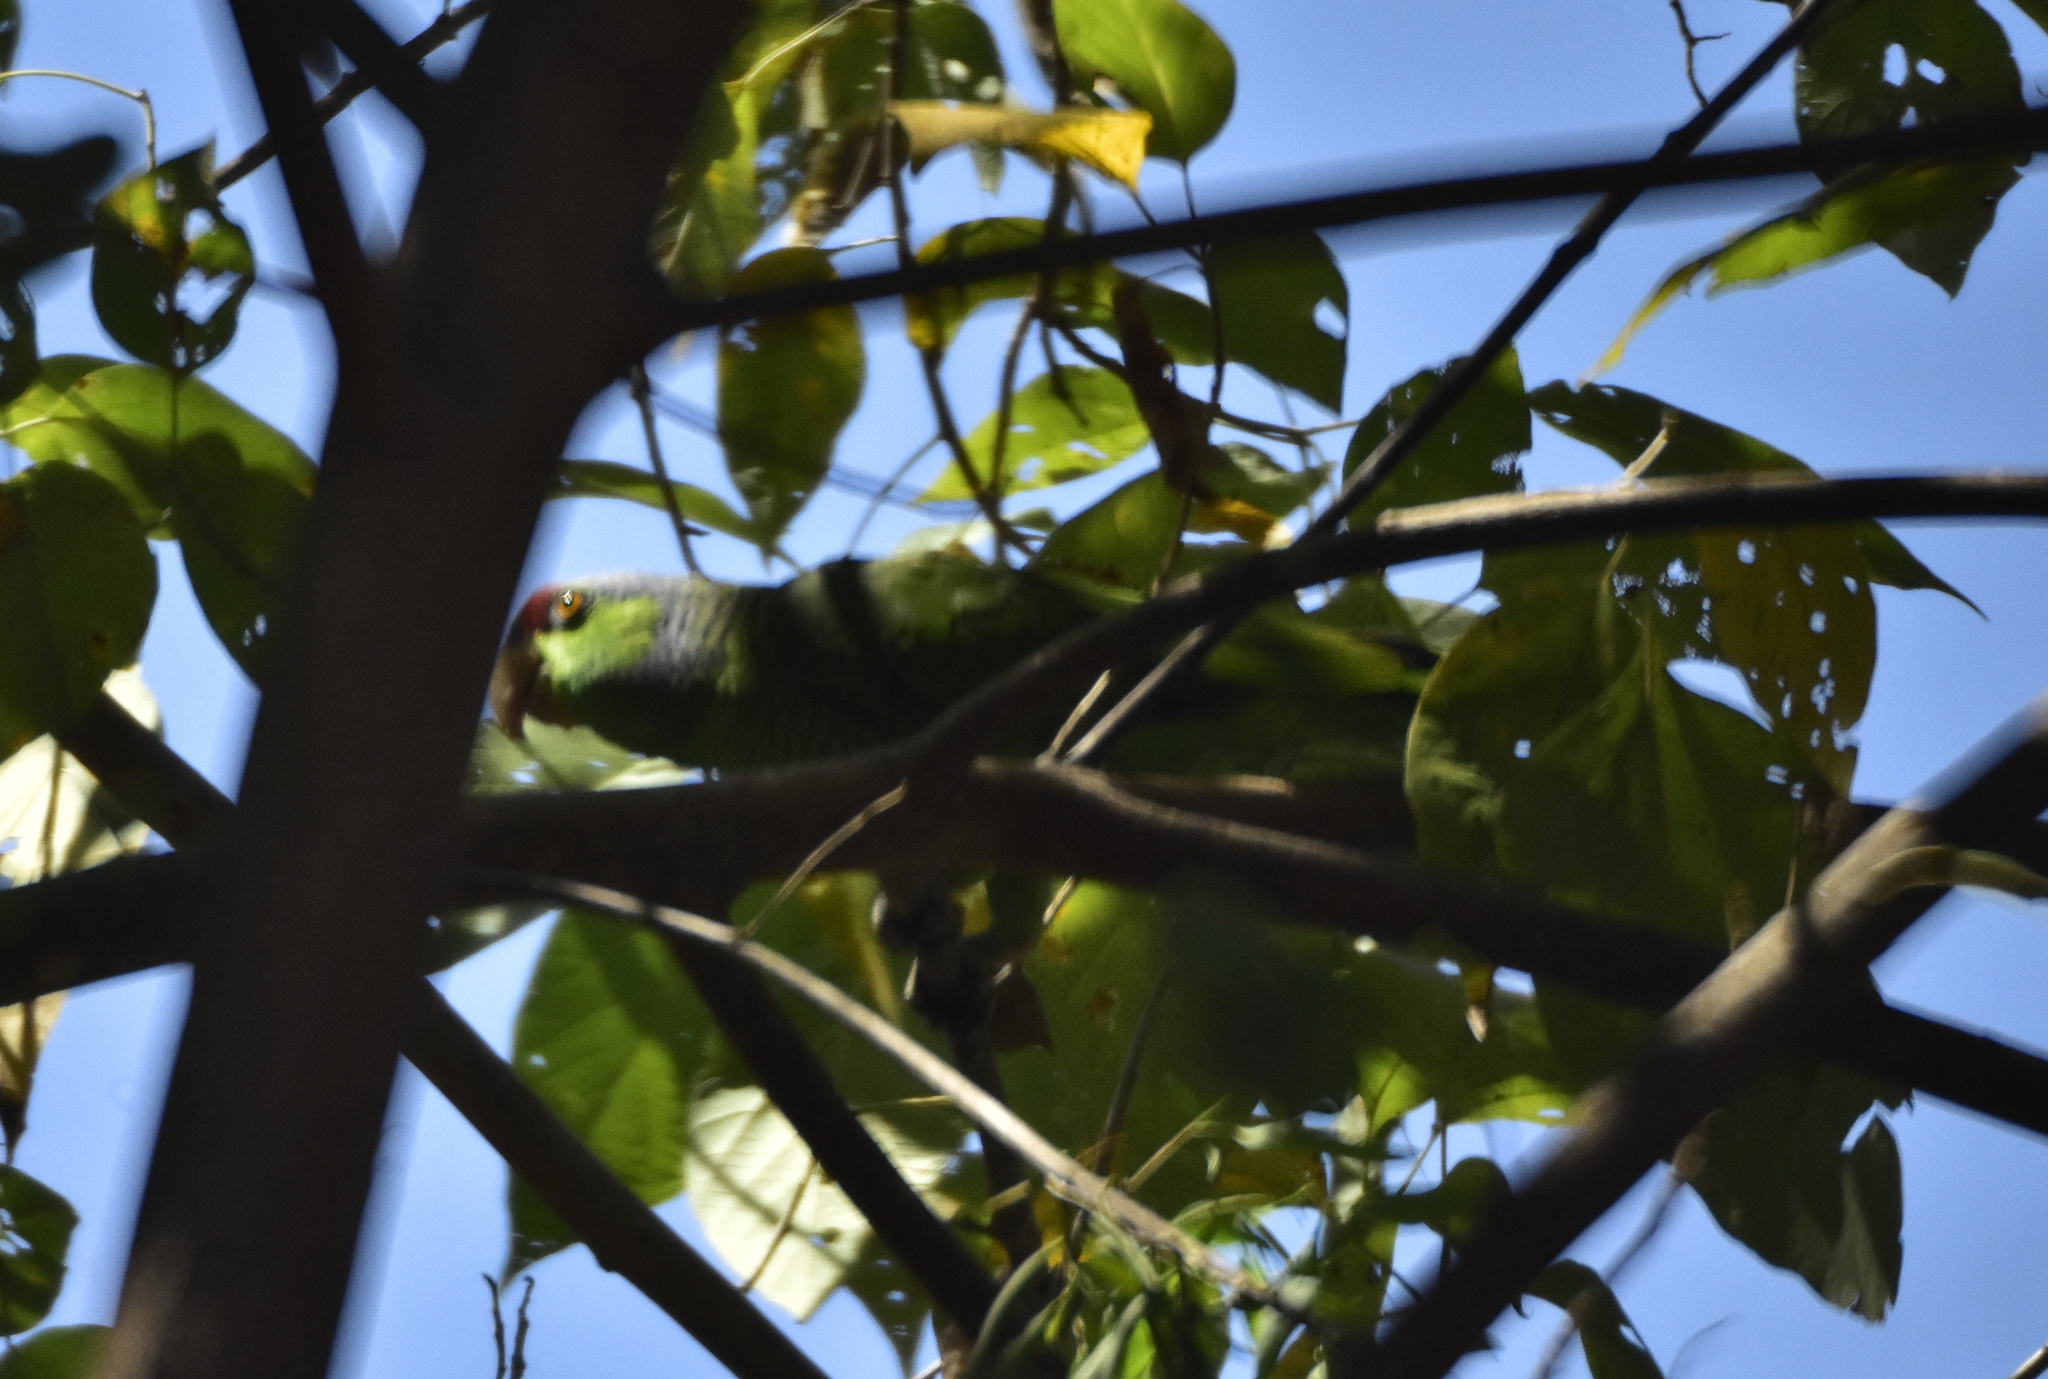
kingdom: Animalia
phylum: Chordata
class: Aves
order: Psittaciformes
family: Psittacidae
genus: Amazona
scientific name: Amazona finschi
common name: Lilac-crowned amazon
